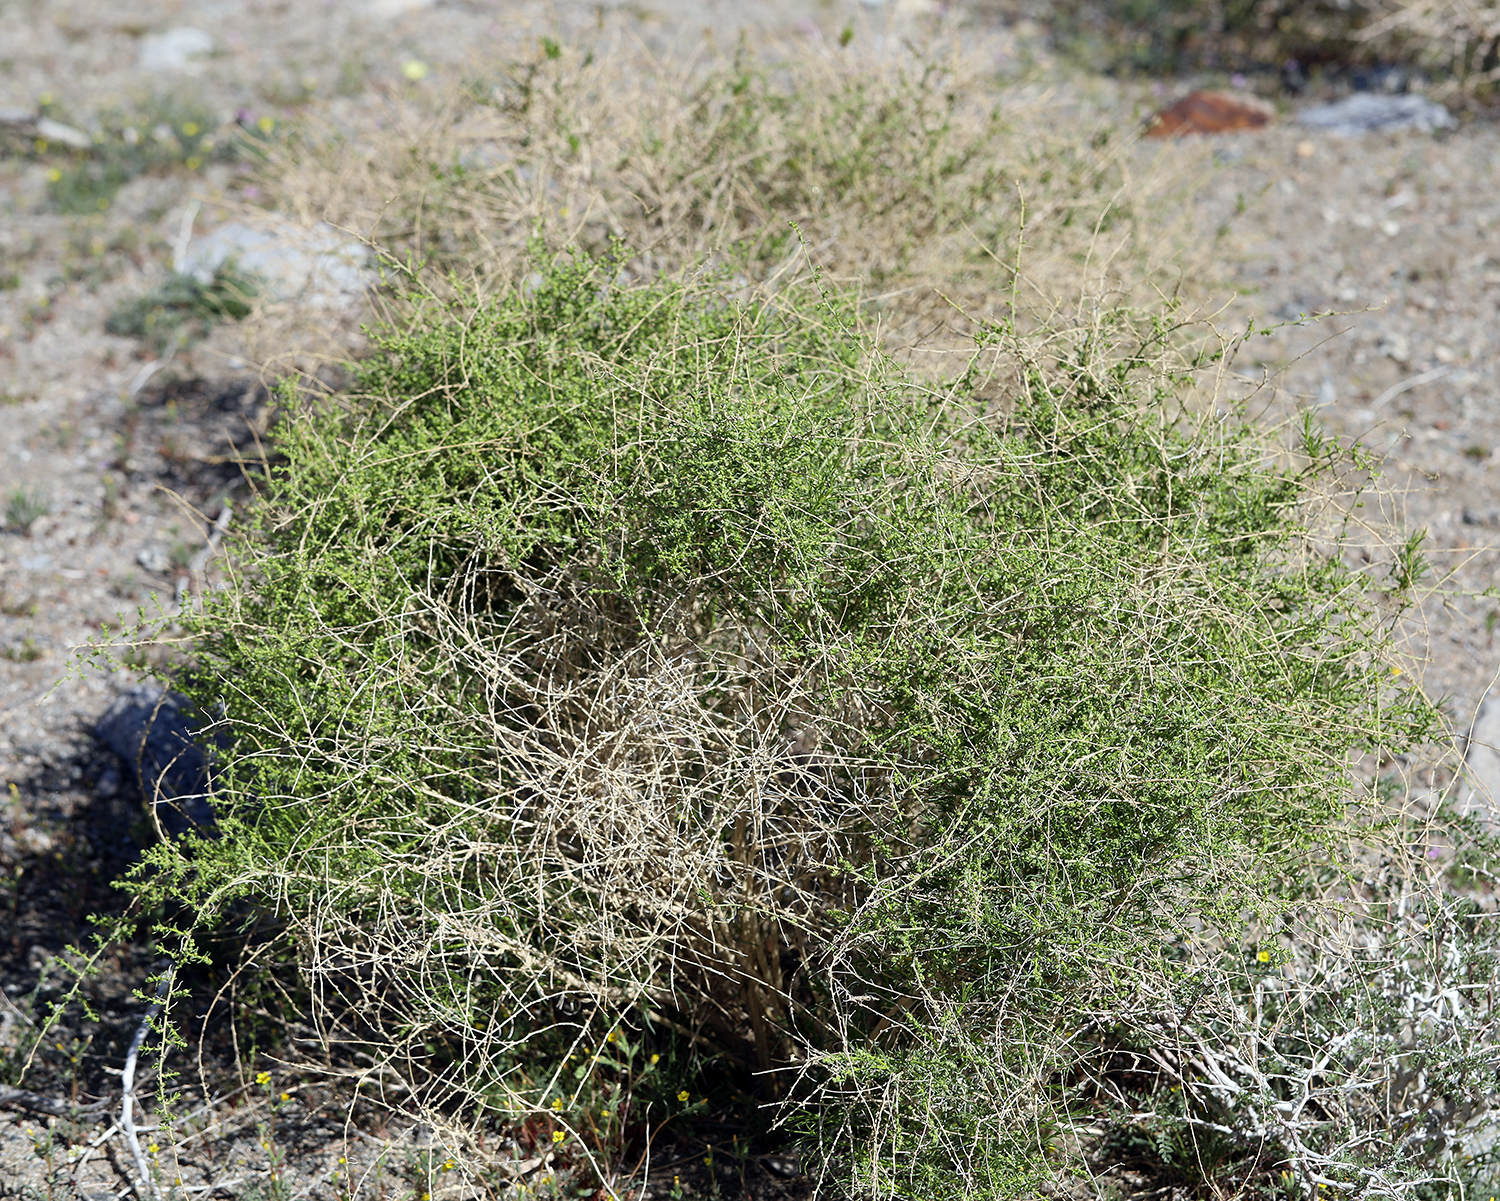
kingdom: Plantae
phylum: Tracheophyta
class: Magnoliopsida
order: Asterales
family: Asteraceae
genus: Ambrosia
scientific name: Ambrosia salsola
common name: Burrobrush
